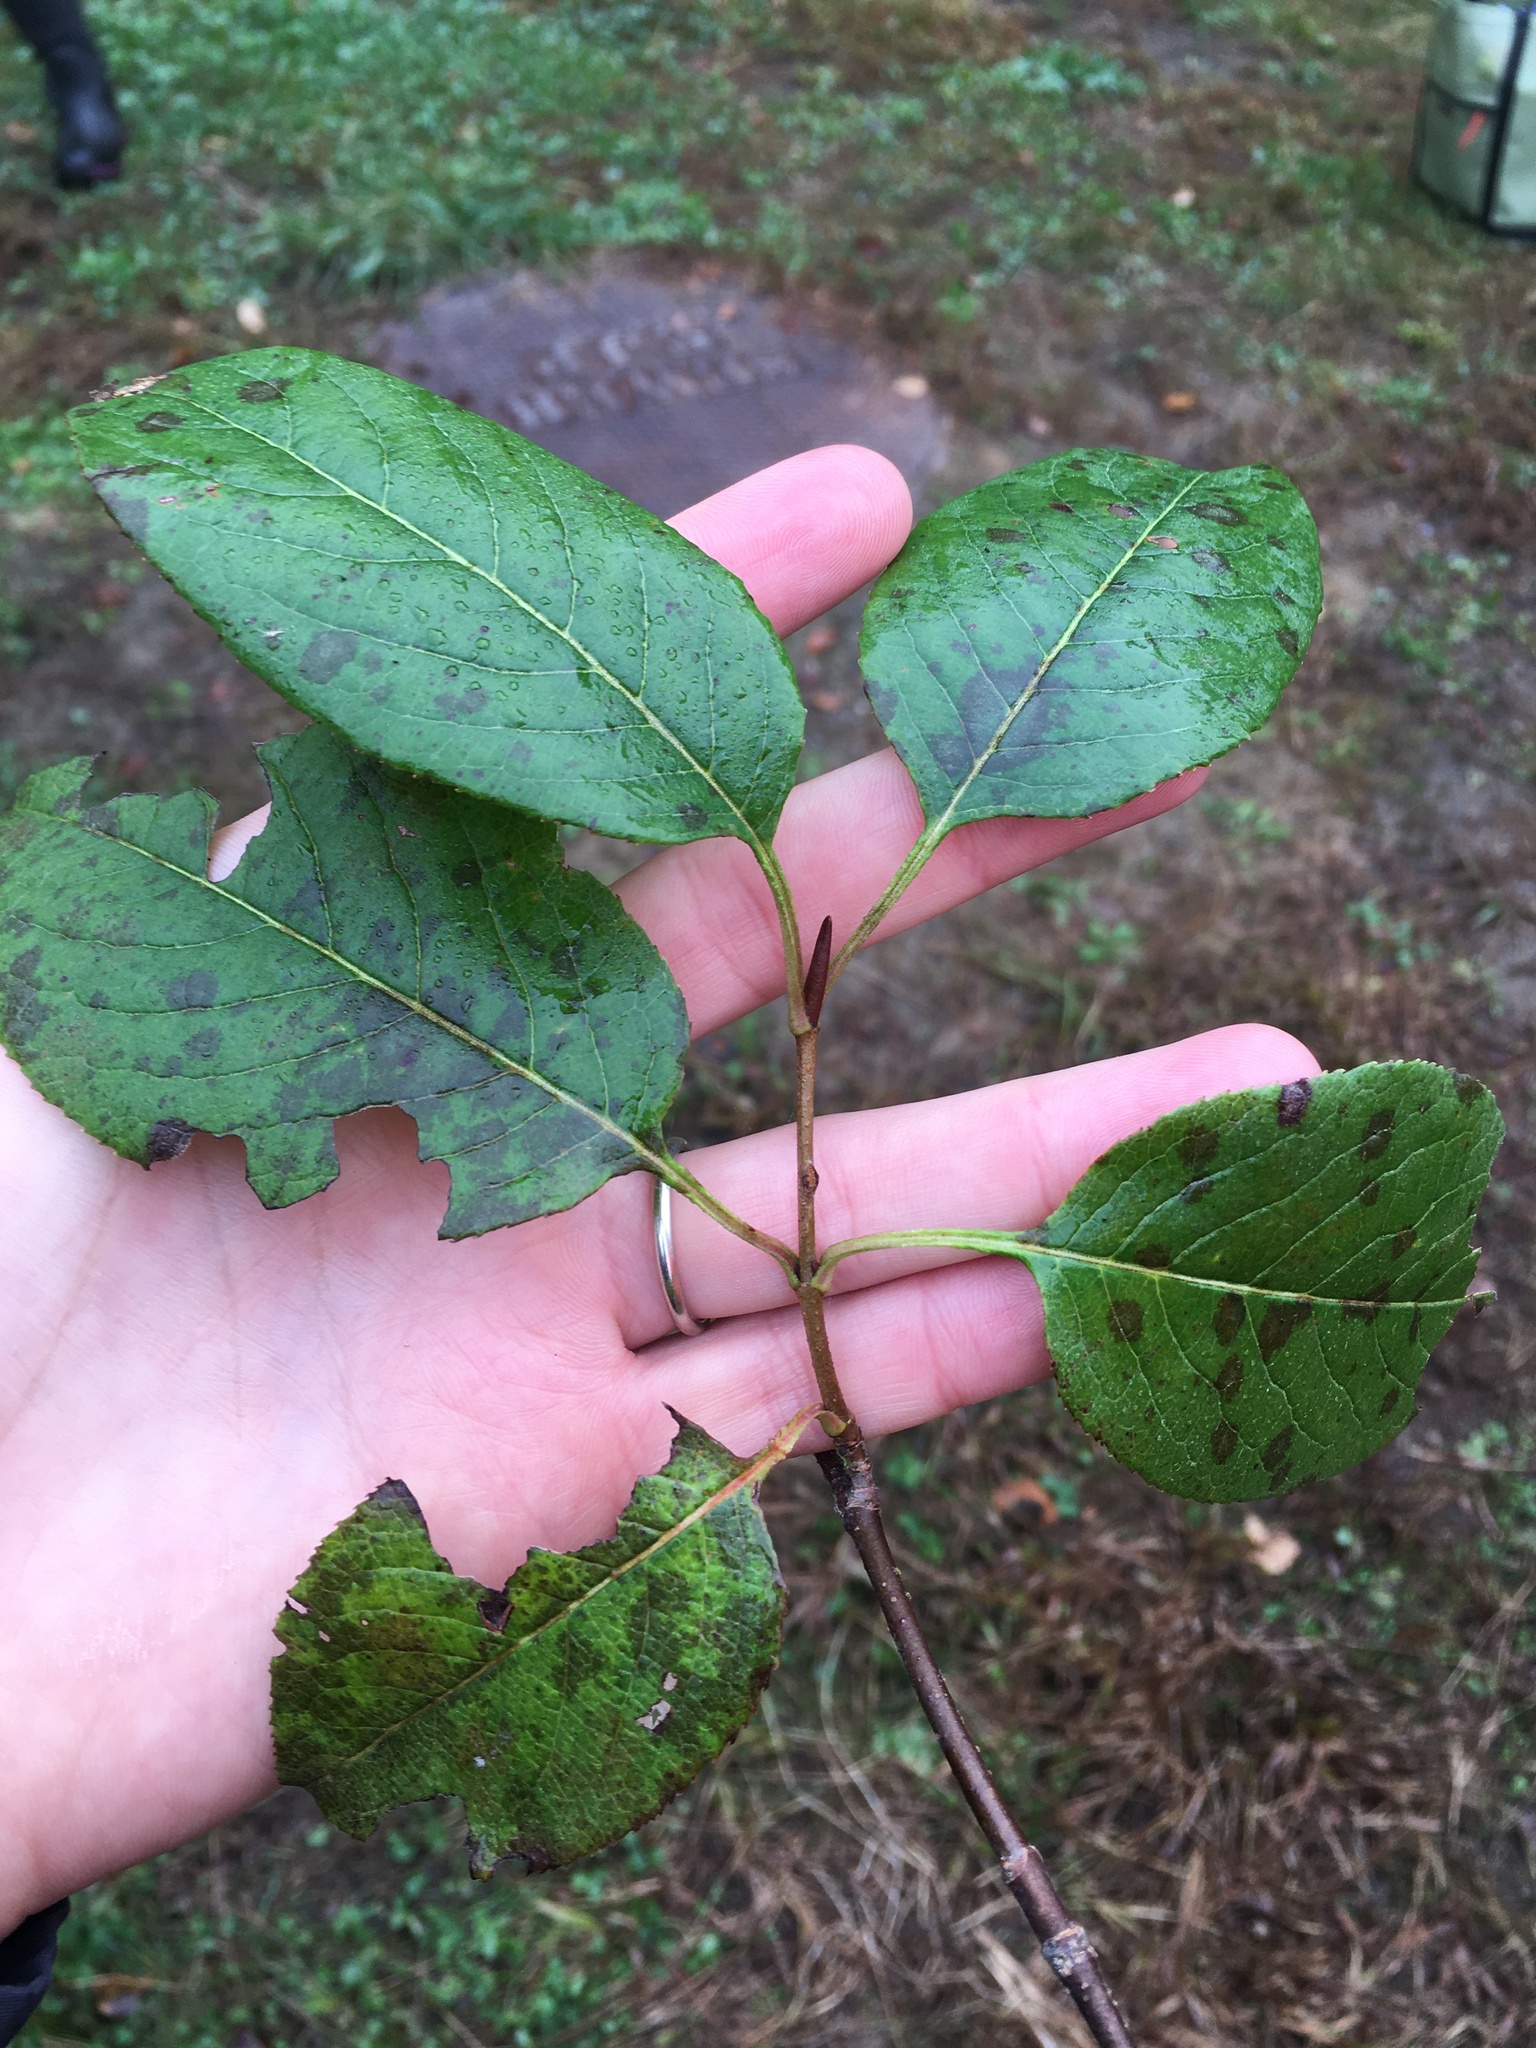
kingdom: Plantae
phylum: Tracheophyta
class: Magnoliopsida
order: Dipsacales
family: Viburnaceae
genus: Viburnum
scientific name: Viburnum lentago
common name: Black haw
